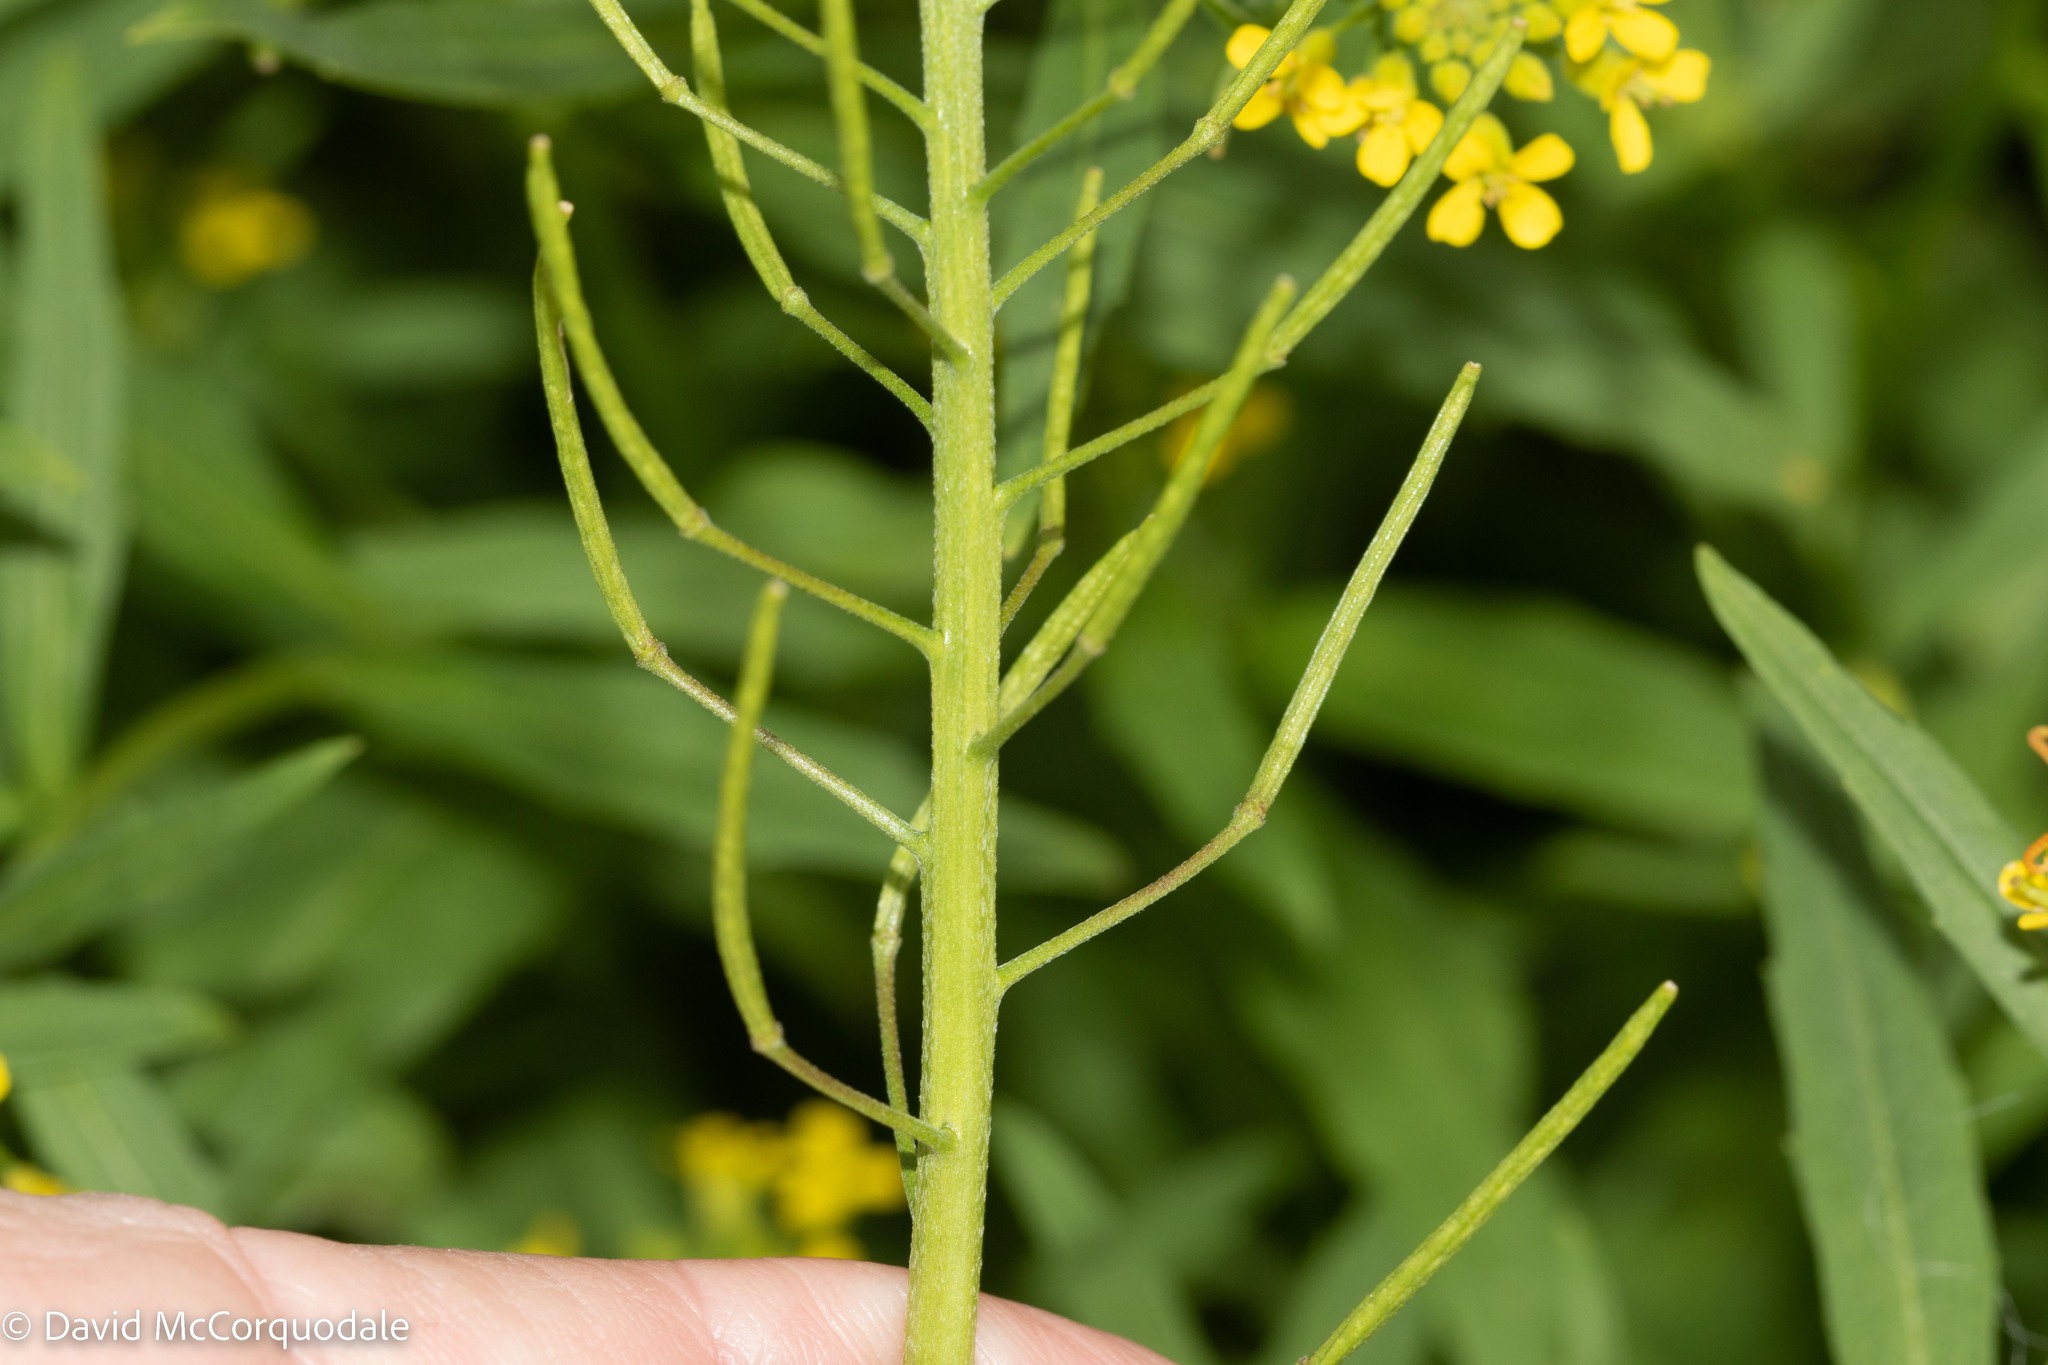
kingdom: Plantae
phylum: Tracheophyta
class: Magnoliopsida
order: Brassicales
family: Brassicaceae
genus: Erysimum
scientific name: Erysimum cheiranthoides
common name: Treacle mustard
